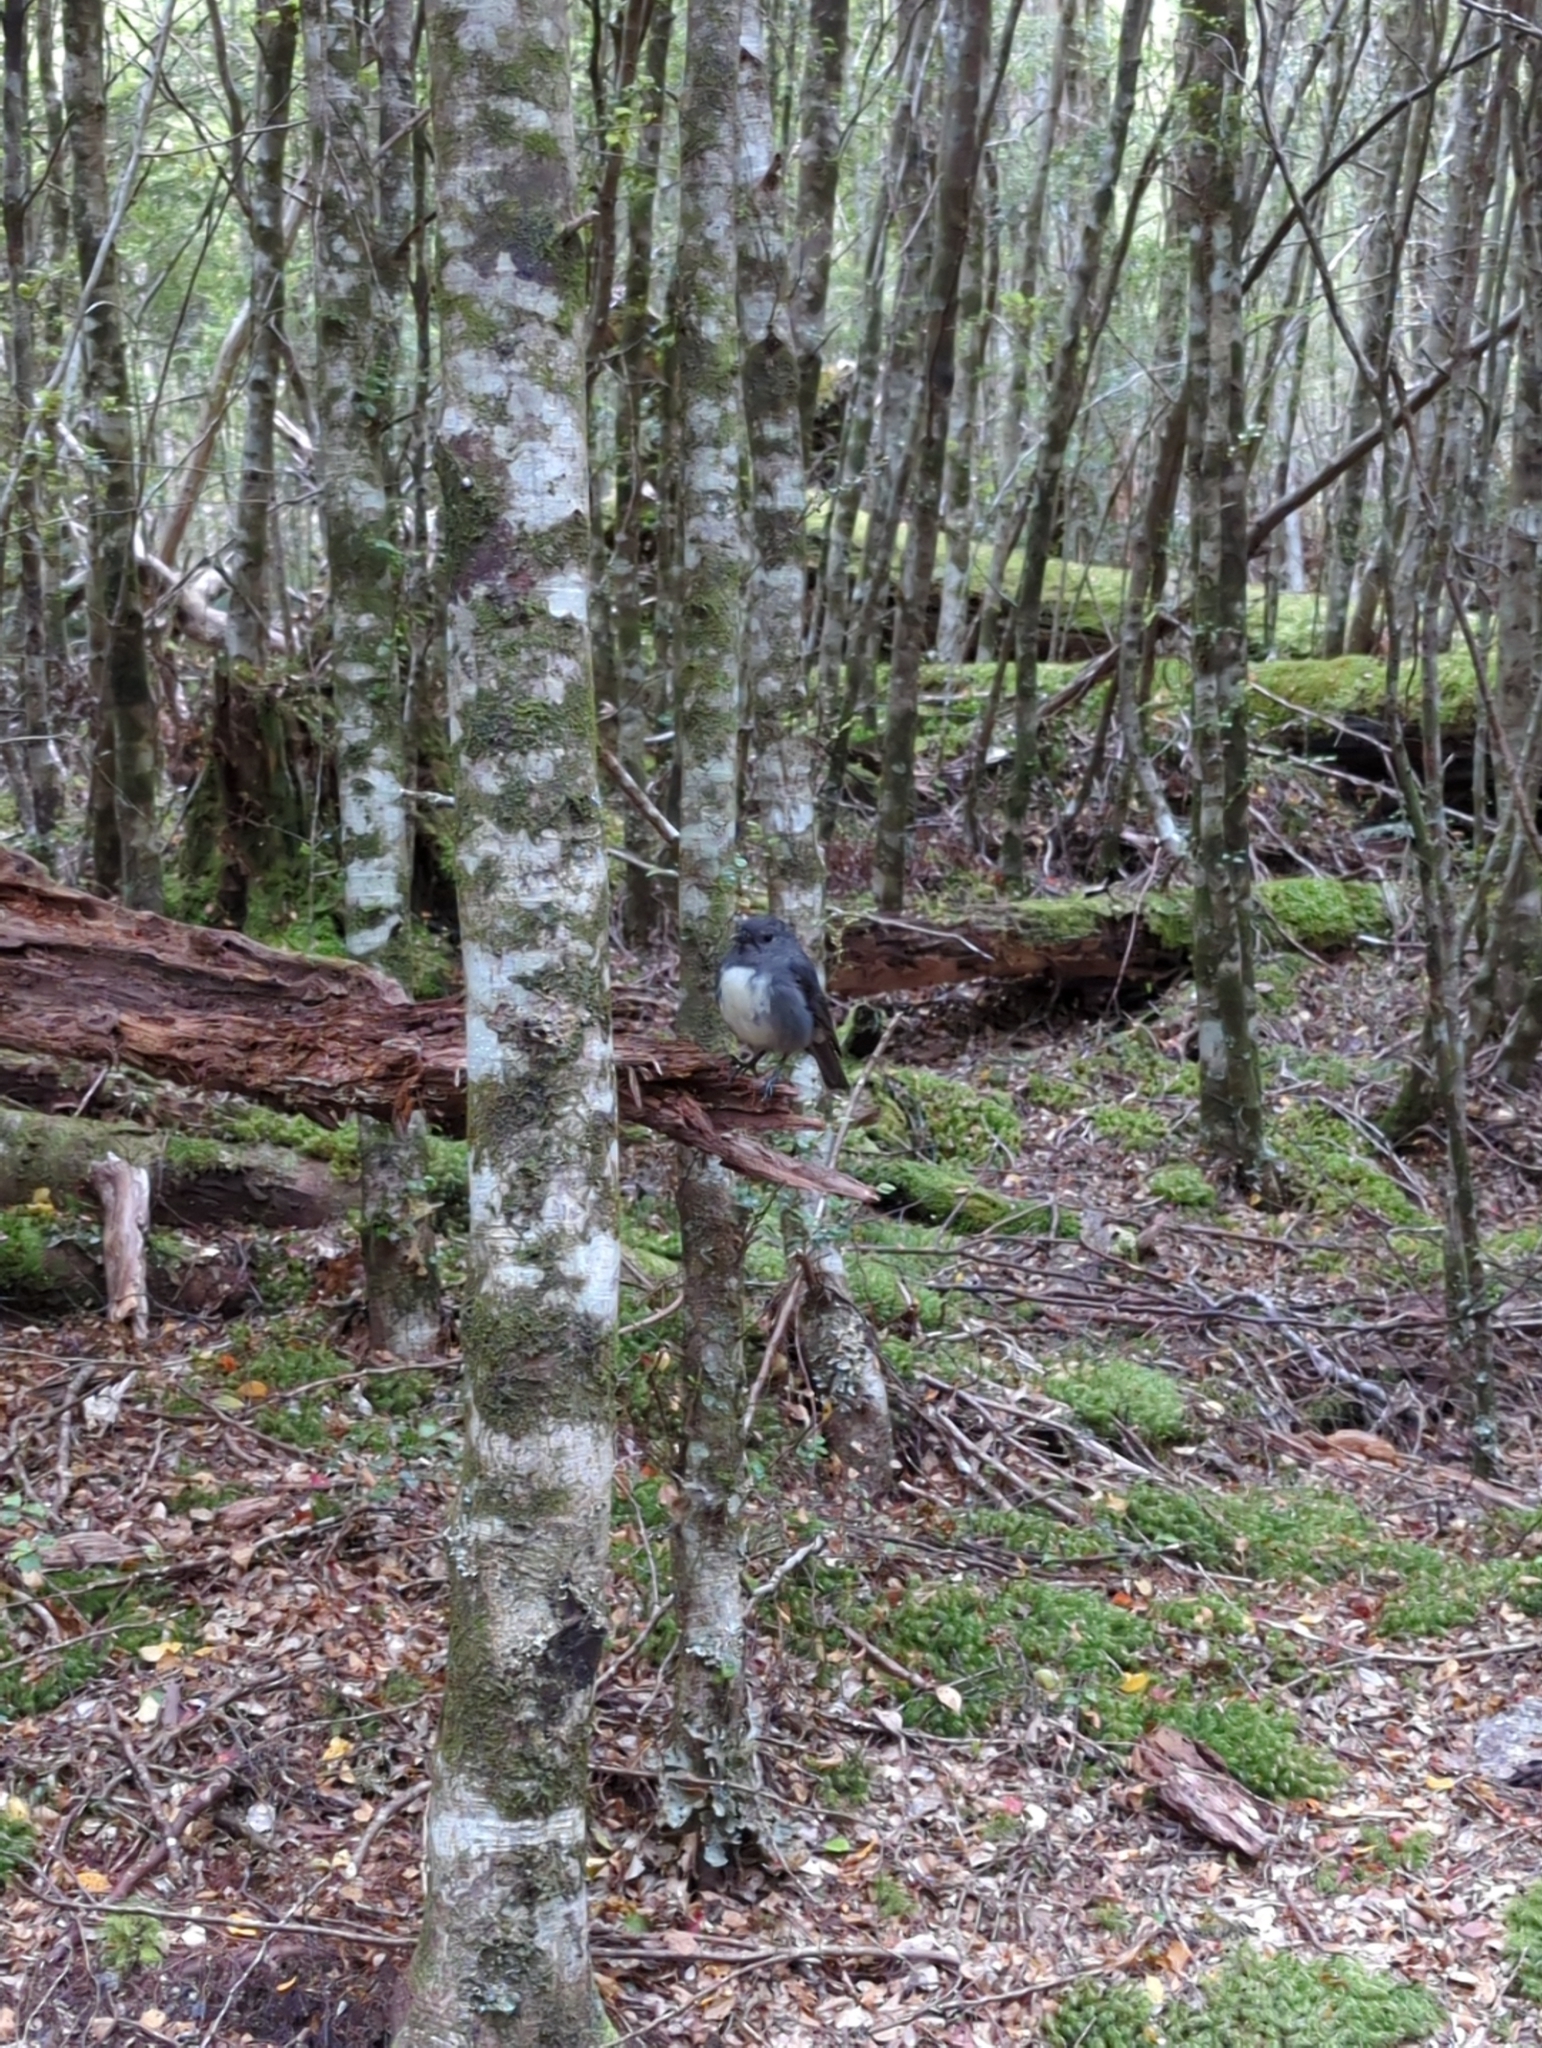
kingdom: Animalia
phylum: Chordata
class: Aves
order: Passeriformes
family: Petroicidae
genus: Petroica
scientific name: Petroica australis
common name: New zealand robin
